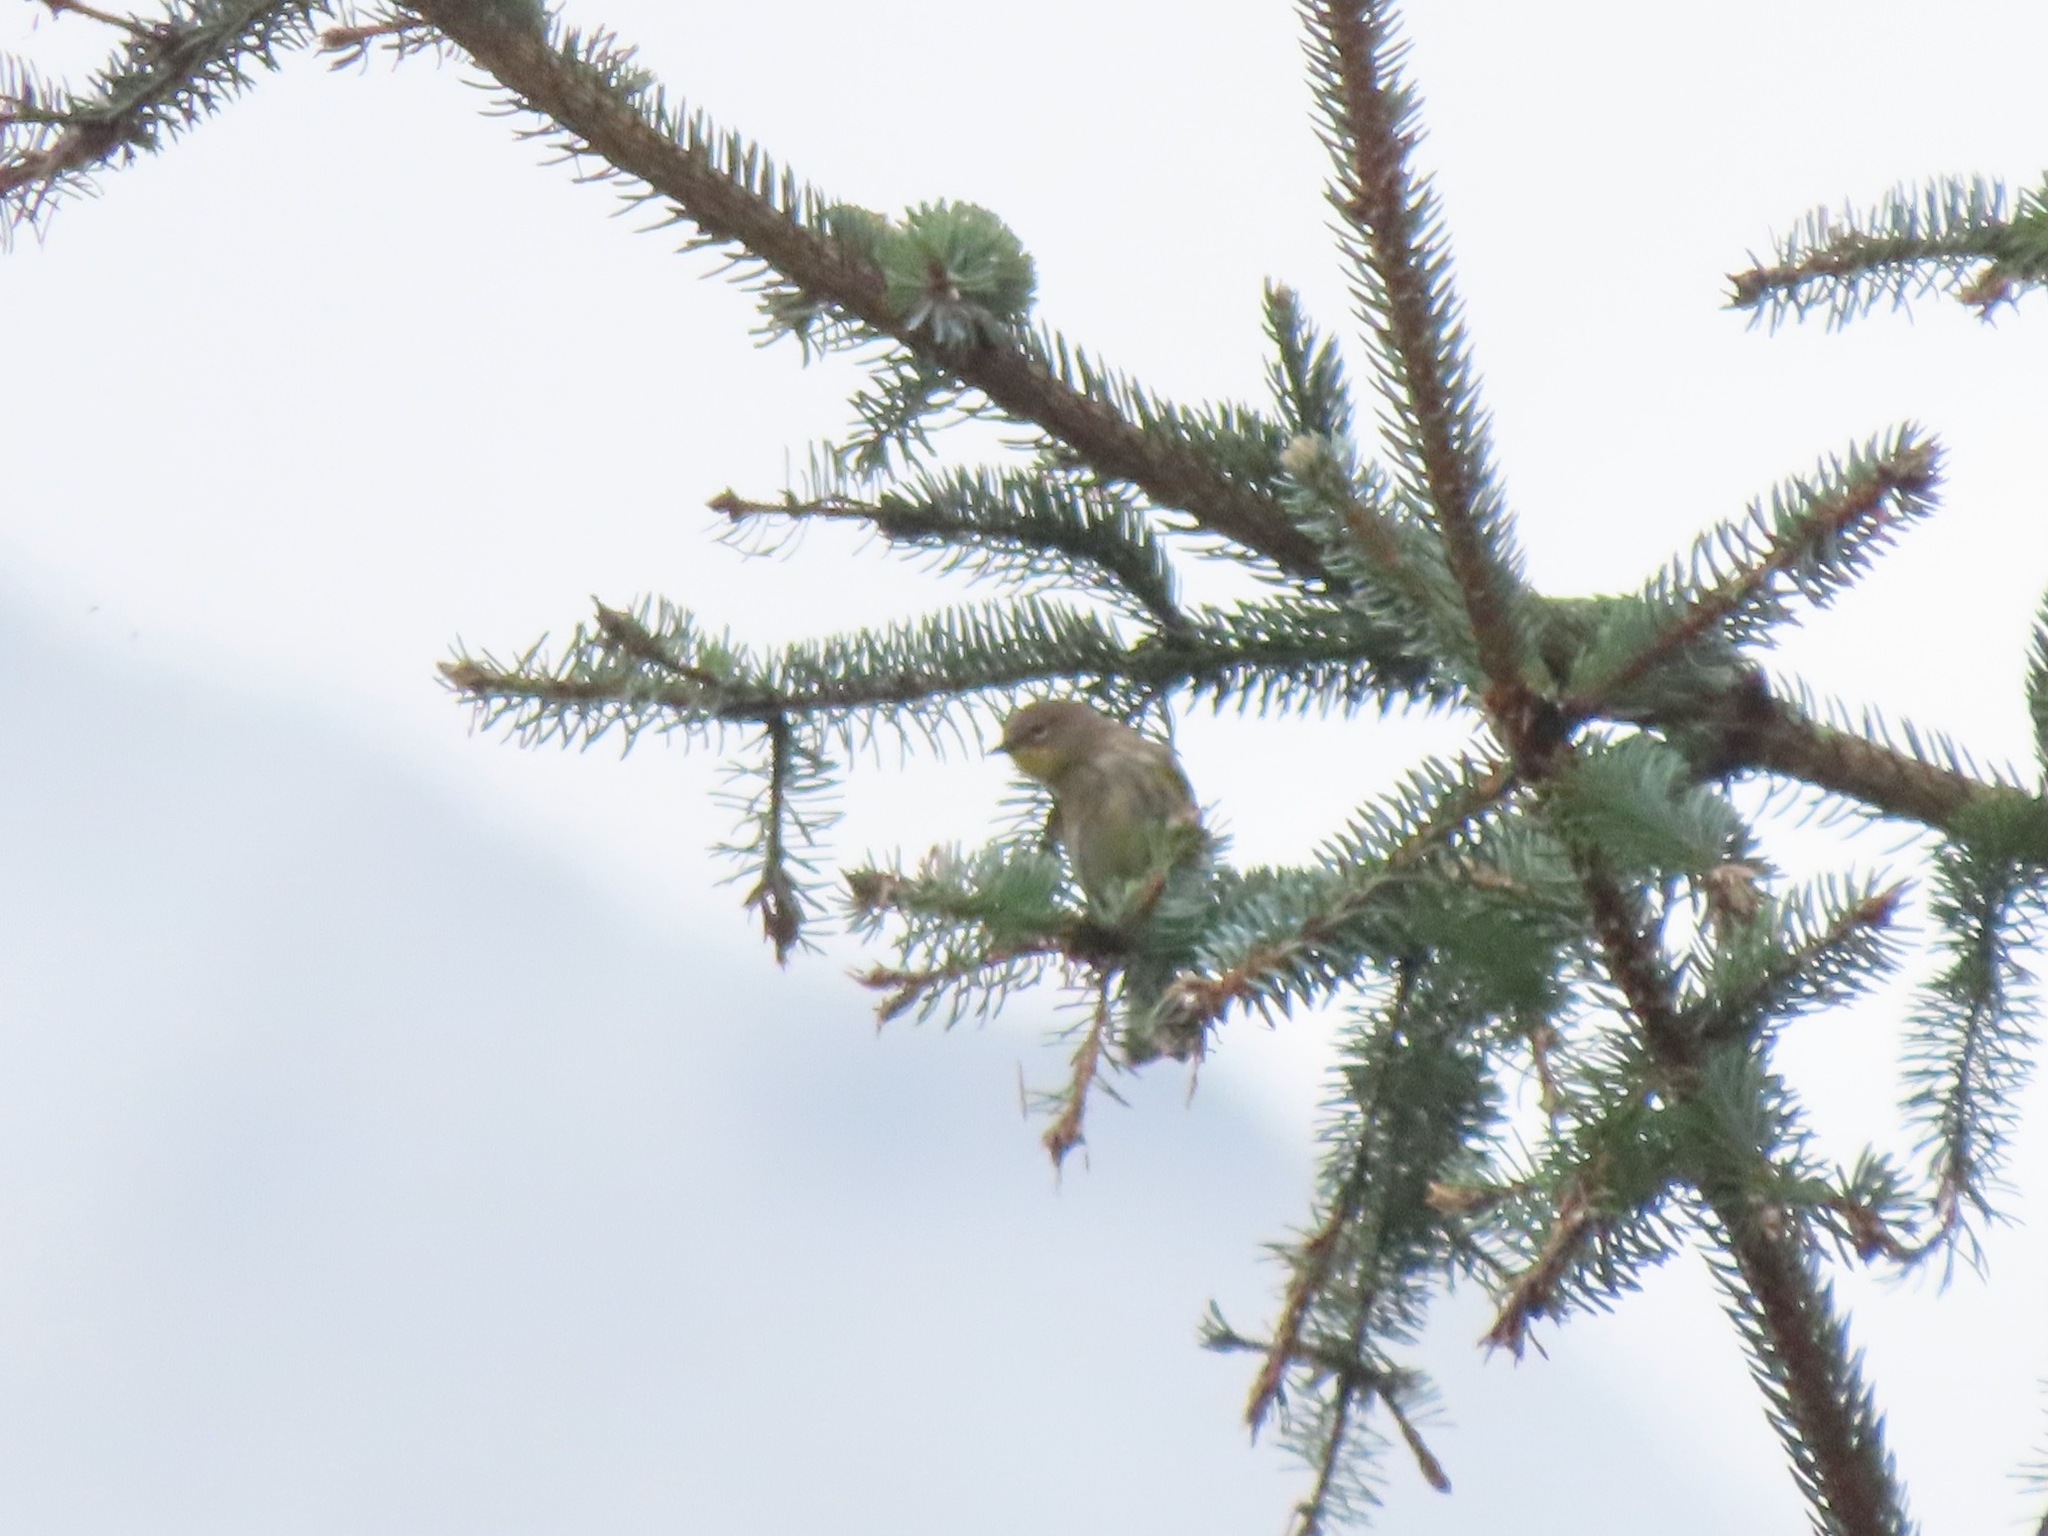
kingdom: Animalia
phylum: Chordata
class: Aves
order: Passeriformes
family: Parulidae
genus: Setophaga
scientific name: Setophaga coronata
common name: Myrtle warbler
